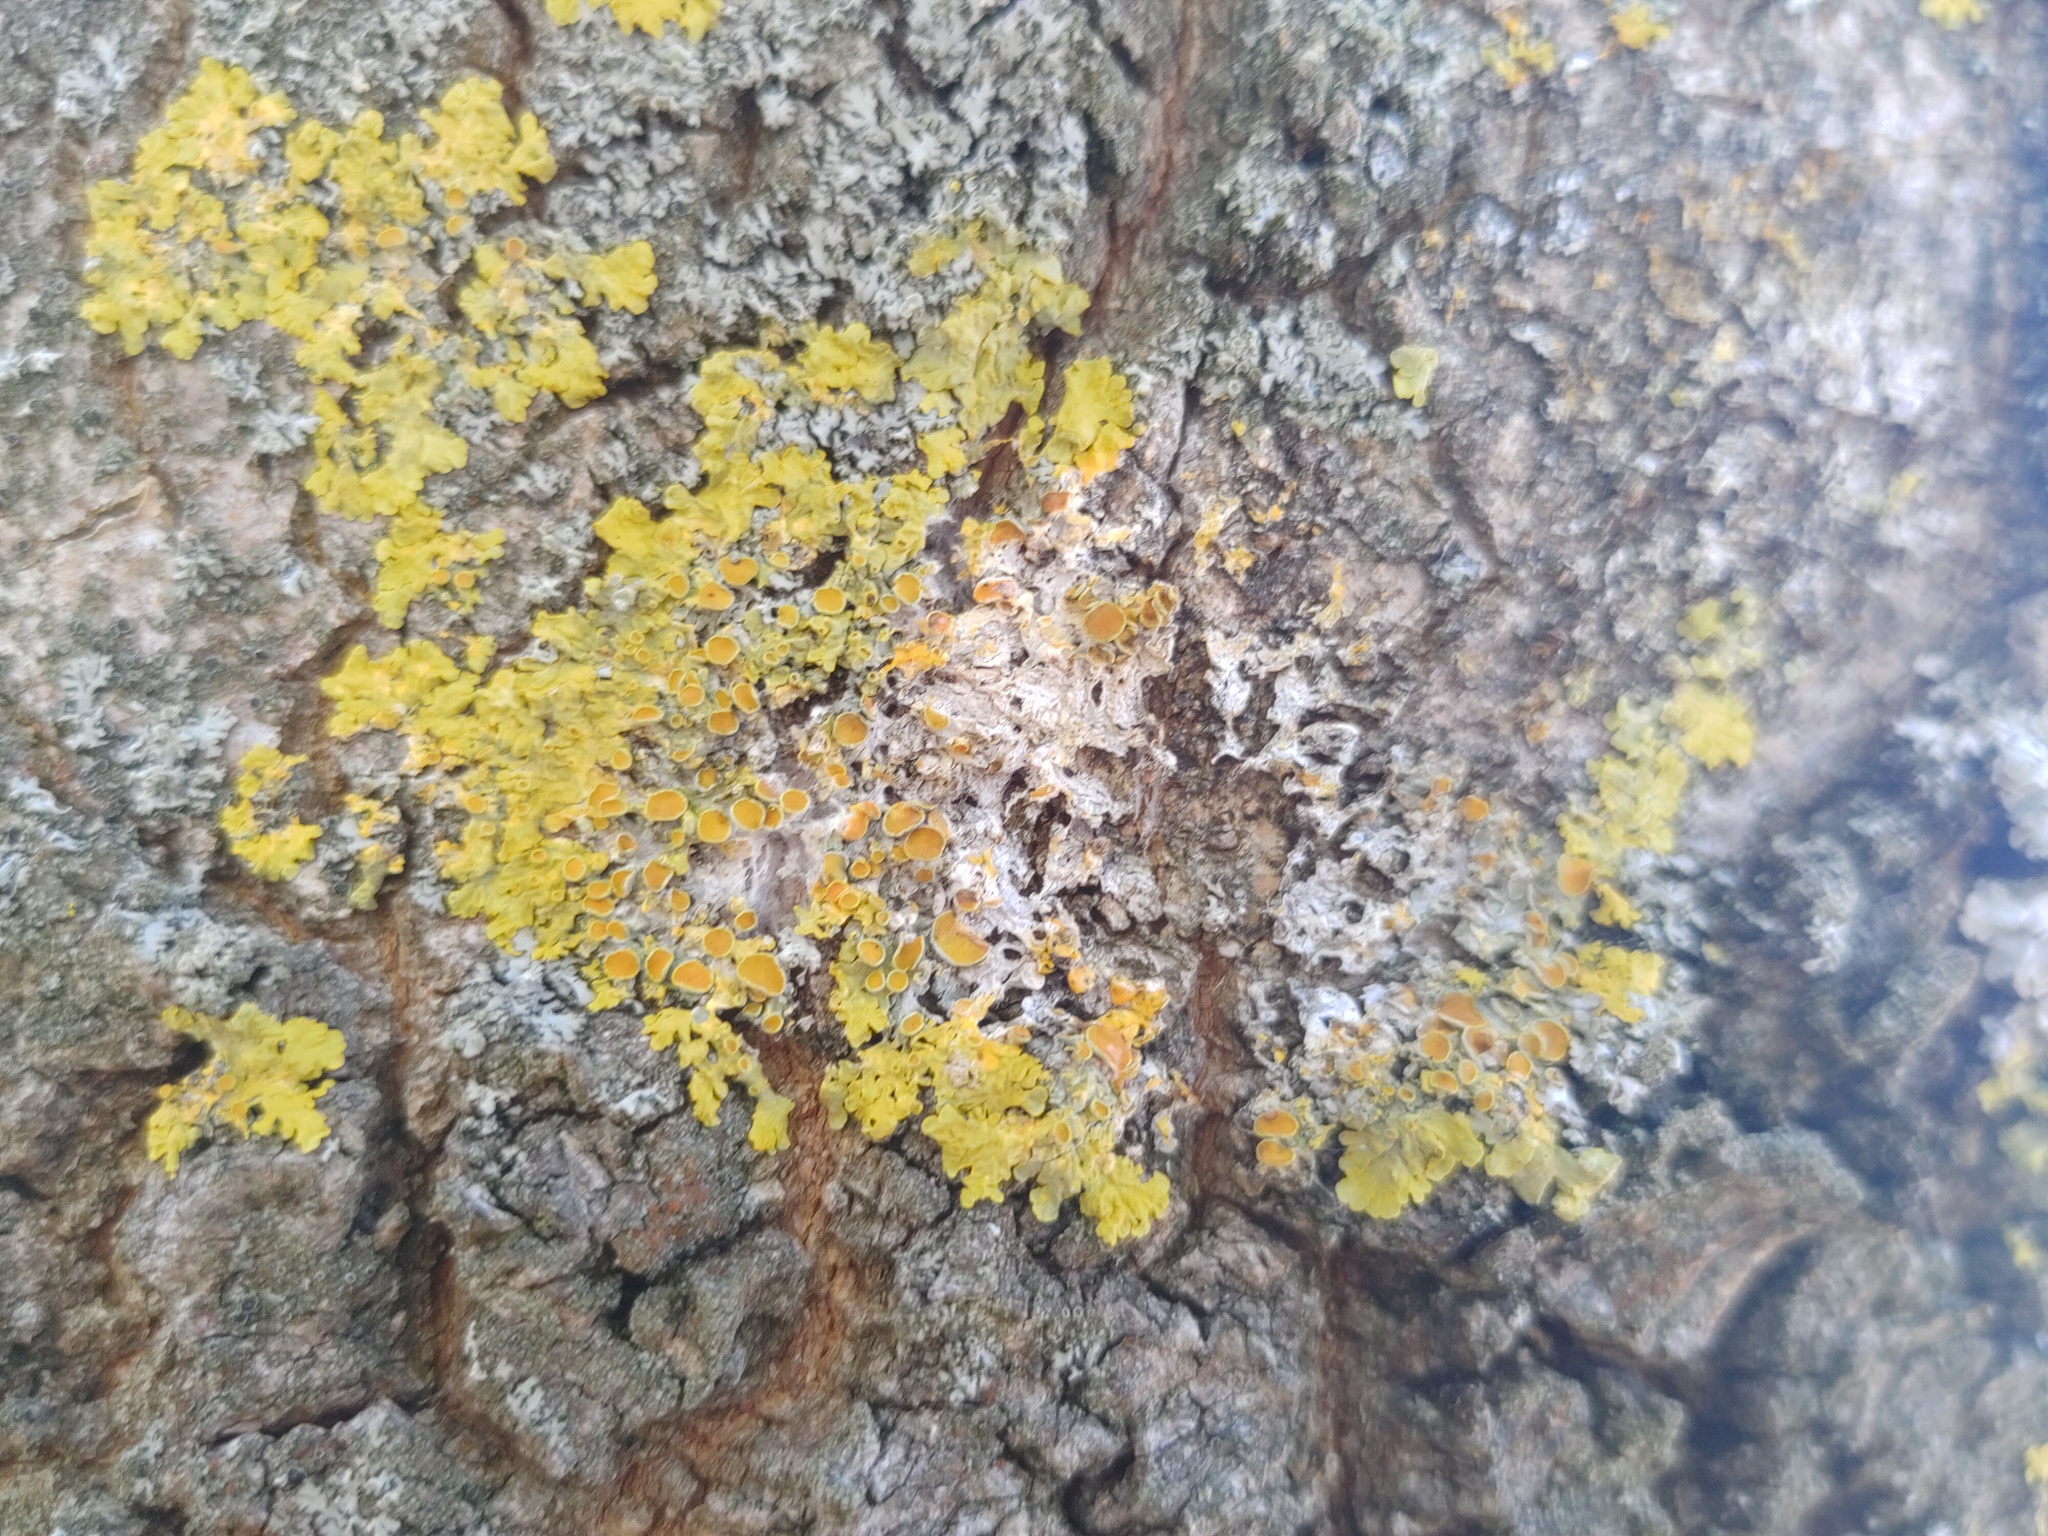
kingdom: Fungi
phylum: Ascomycota
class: Lecanoromycetes
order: Teloschistales
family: Teloschistaceae
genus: Xanthoria
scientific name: Xanthoria parietina
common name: Common orange lichen
